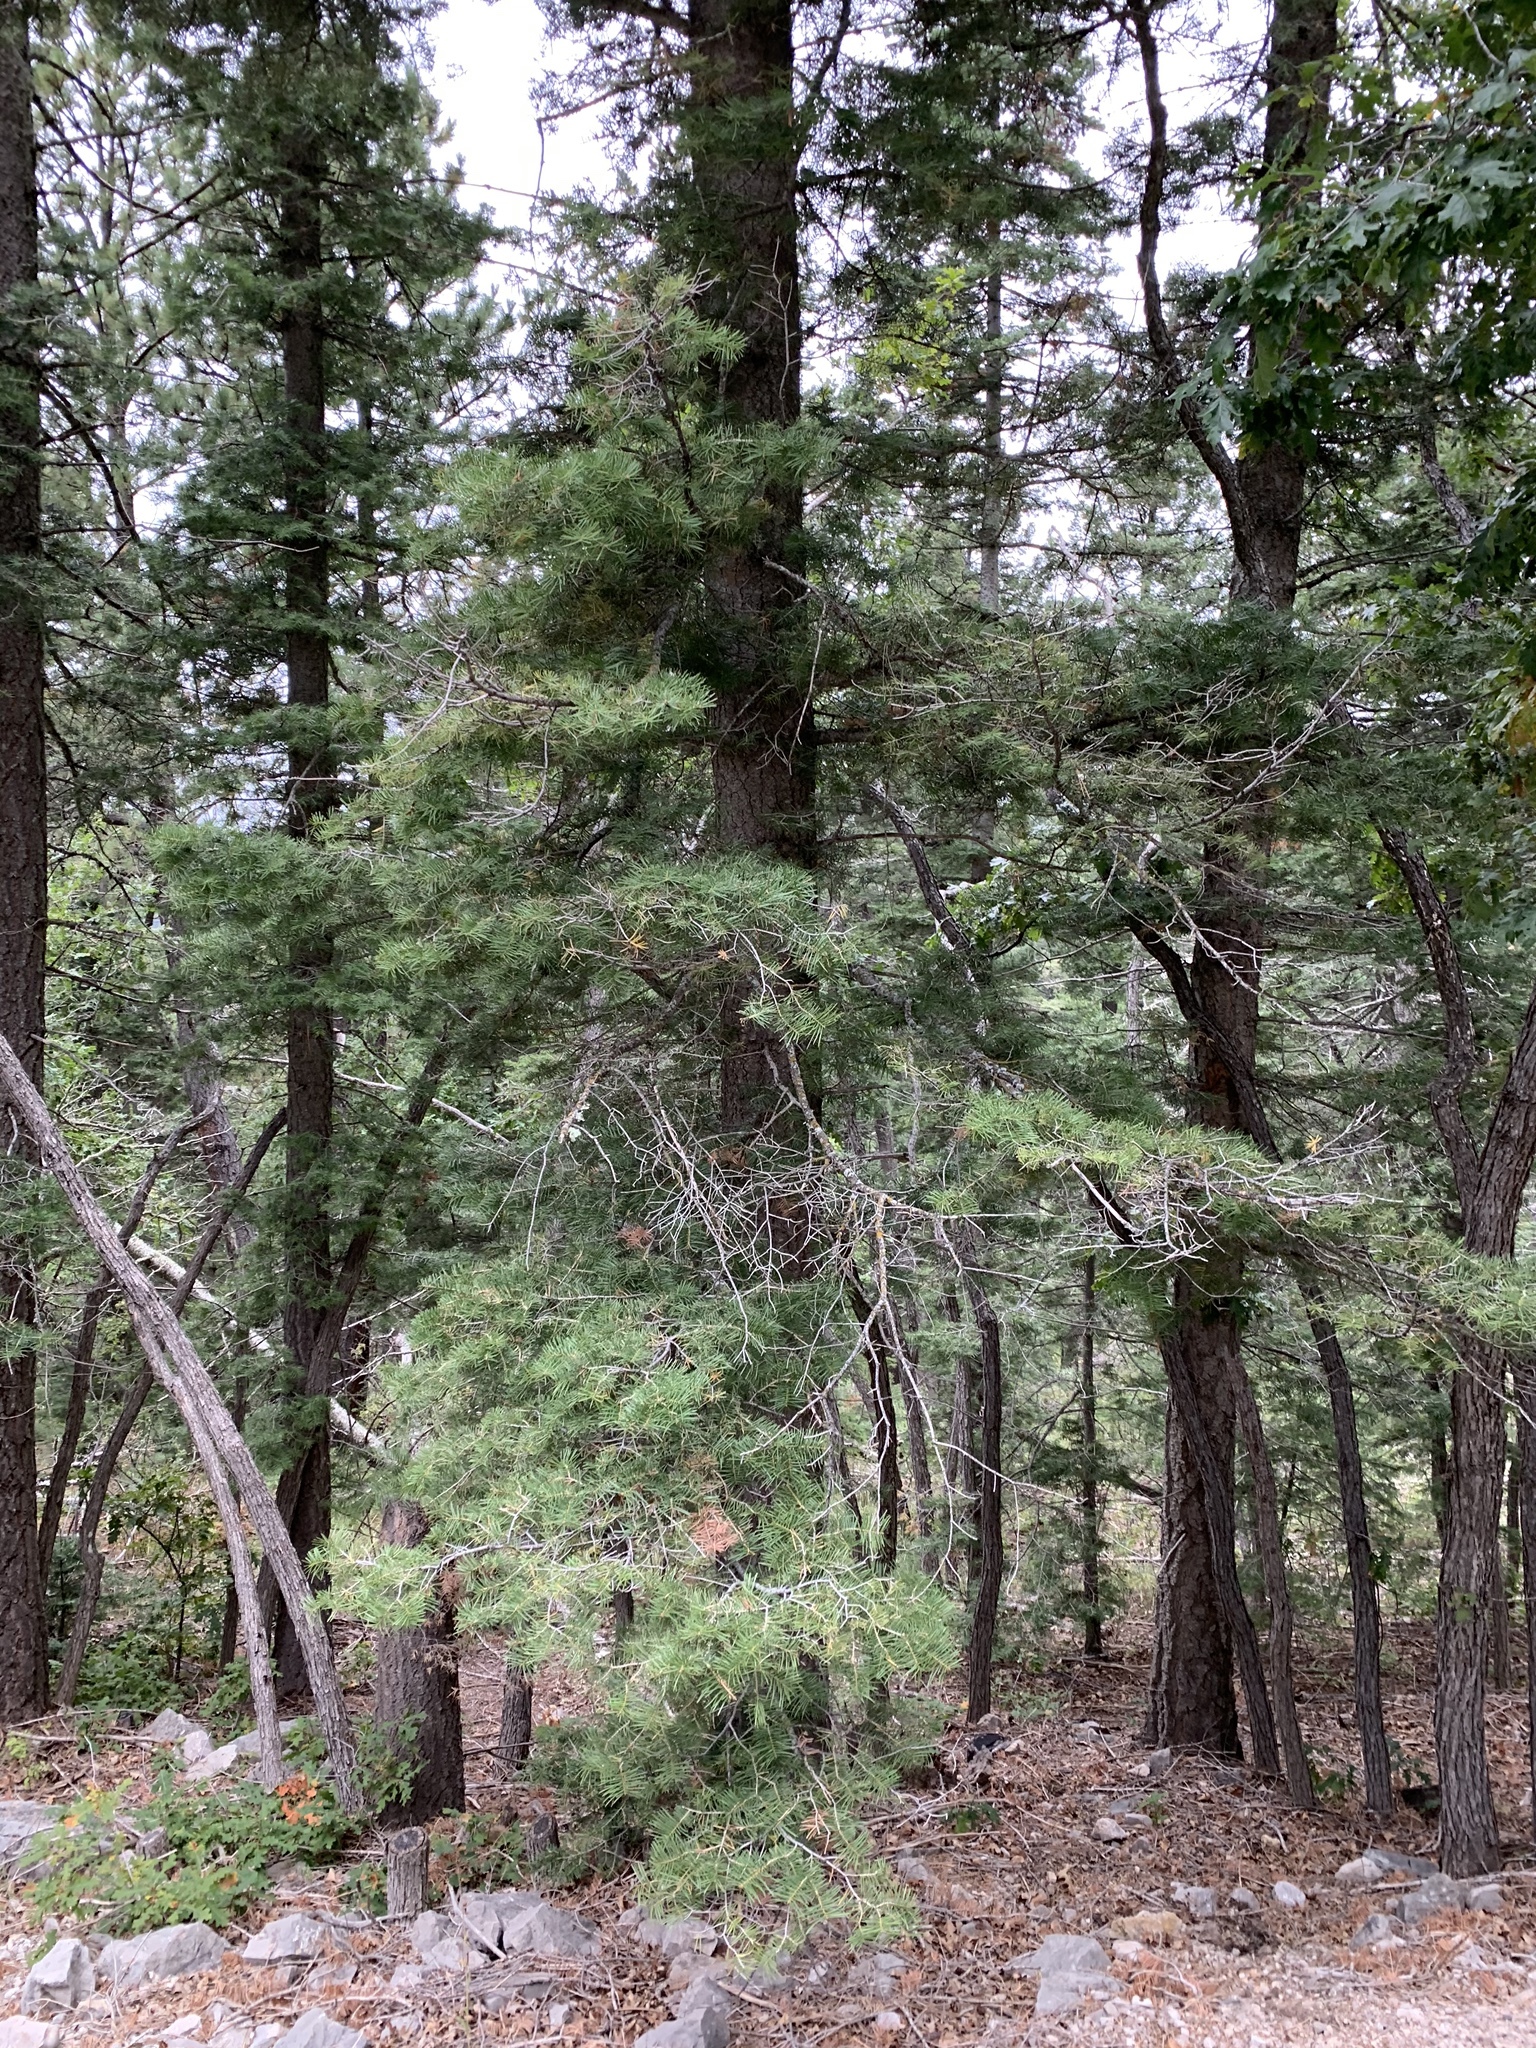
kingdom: Plantae
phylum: Tracheophyta
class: Pinopsida
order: Pinales
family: Pinaceae
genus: Abies
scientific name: Abies concolor
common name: Colorado fir
